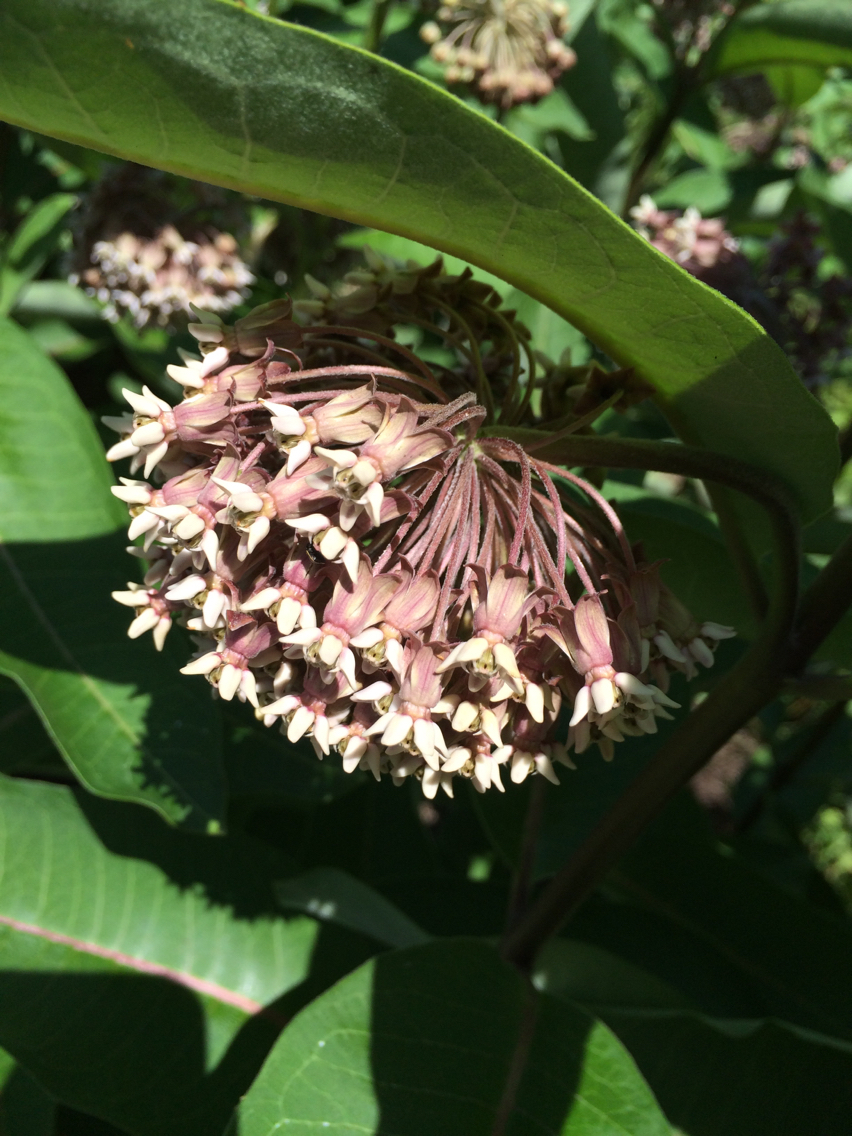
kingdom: Plantae
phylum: Tracheophyta
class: Magnoliopsida
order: Gentianales
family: Apocynaceae
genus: Asclepias
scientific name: Asclepias syriaca
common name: Common milkweed
